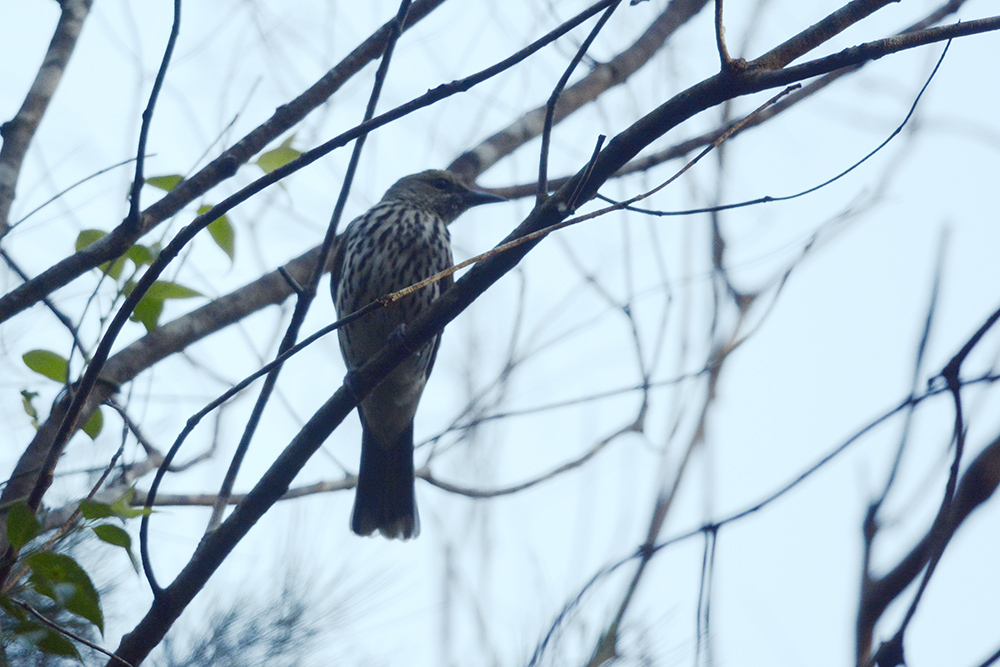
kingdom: Animalia
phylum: Chordata
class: Aves
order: Passeriformes
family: Oriolidae
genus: Oriolus
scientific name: Oriolus sagittatus
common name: Olive-backed oriole
